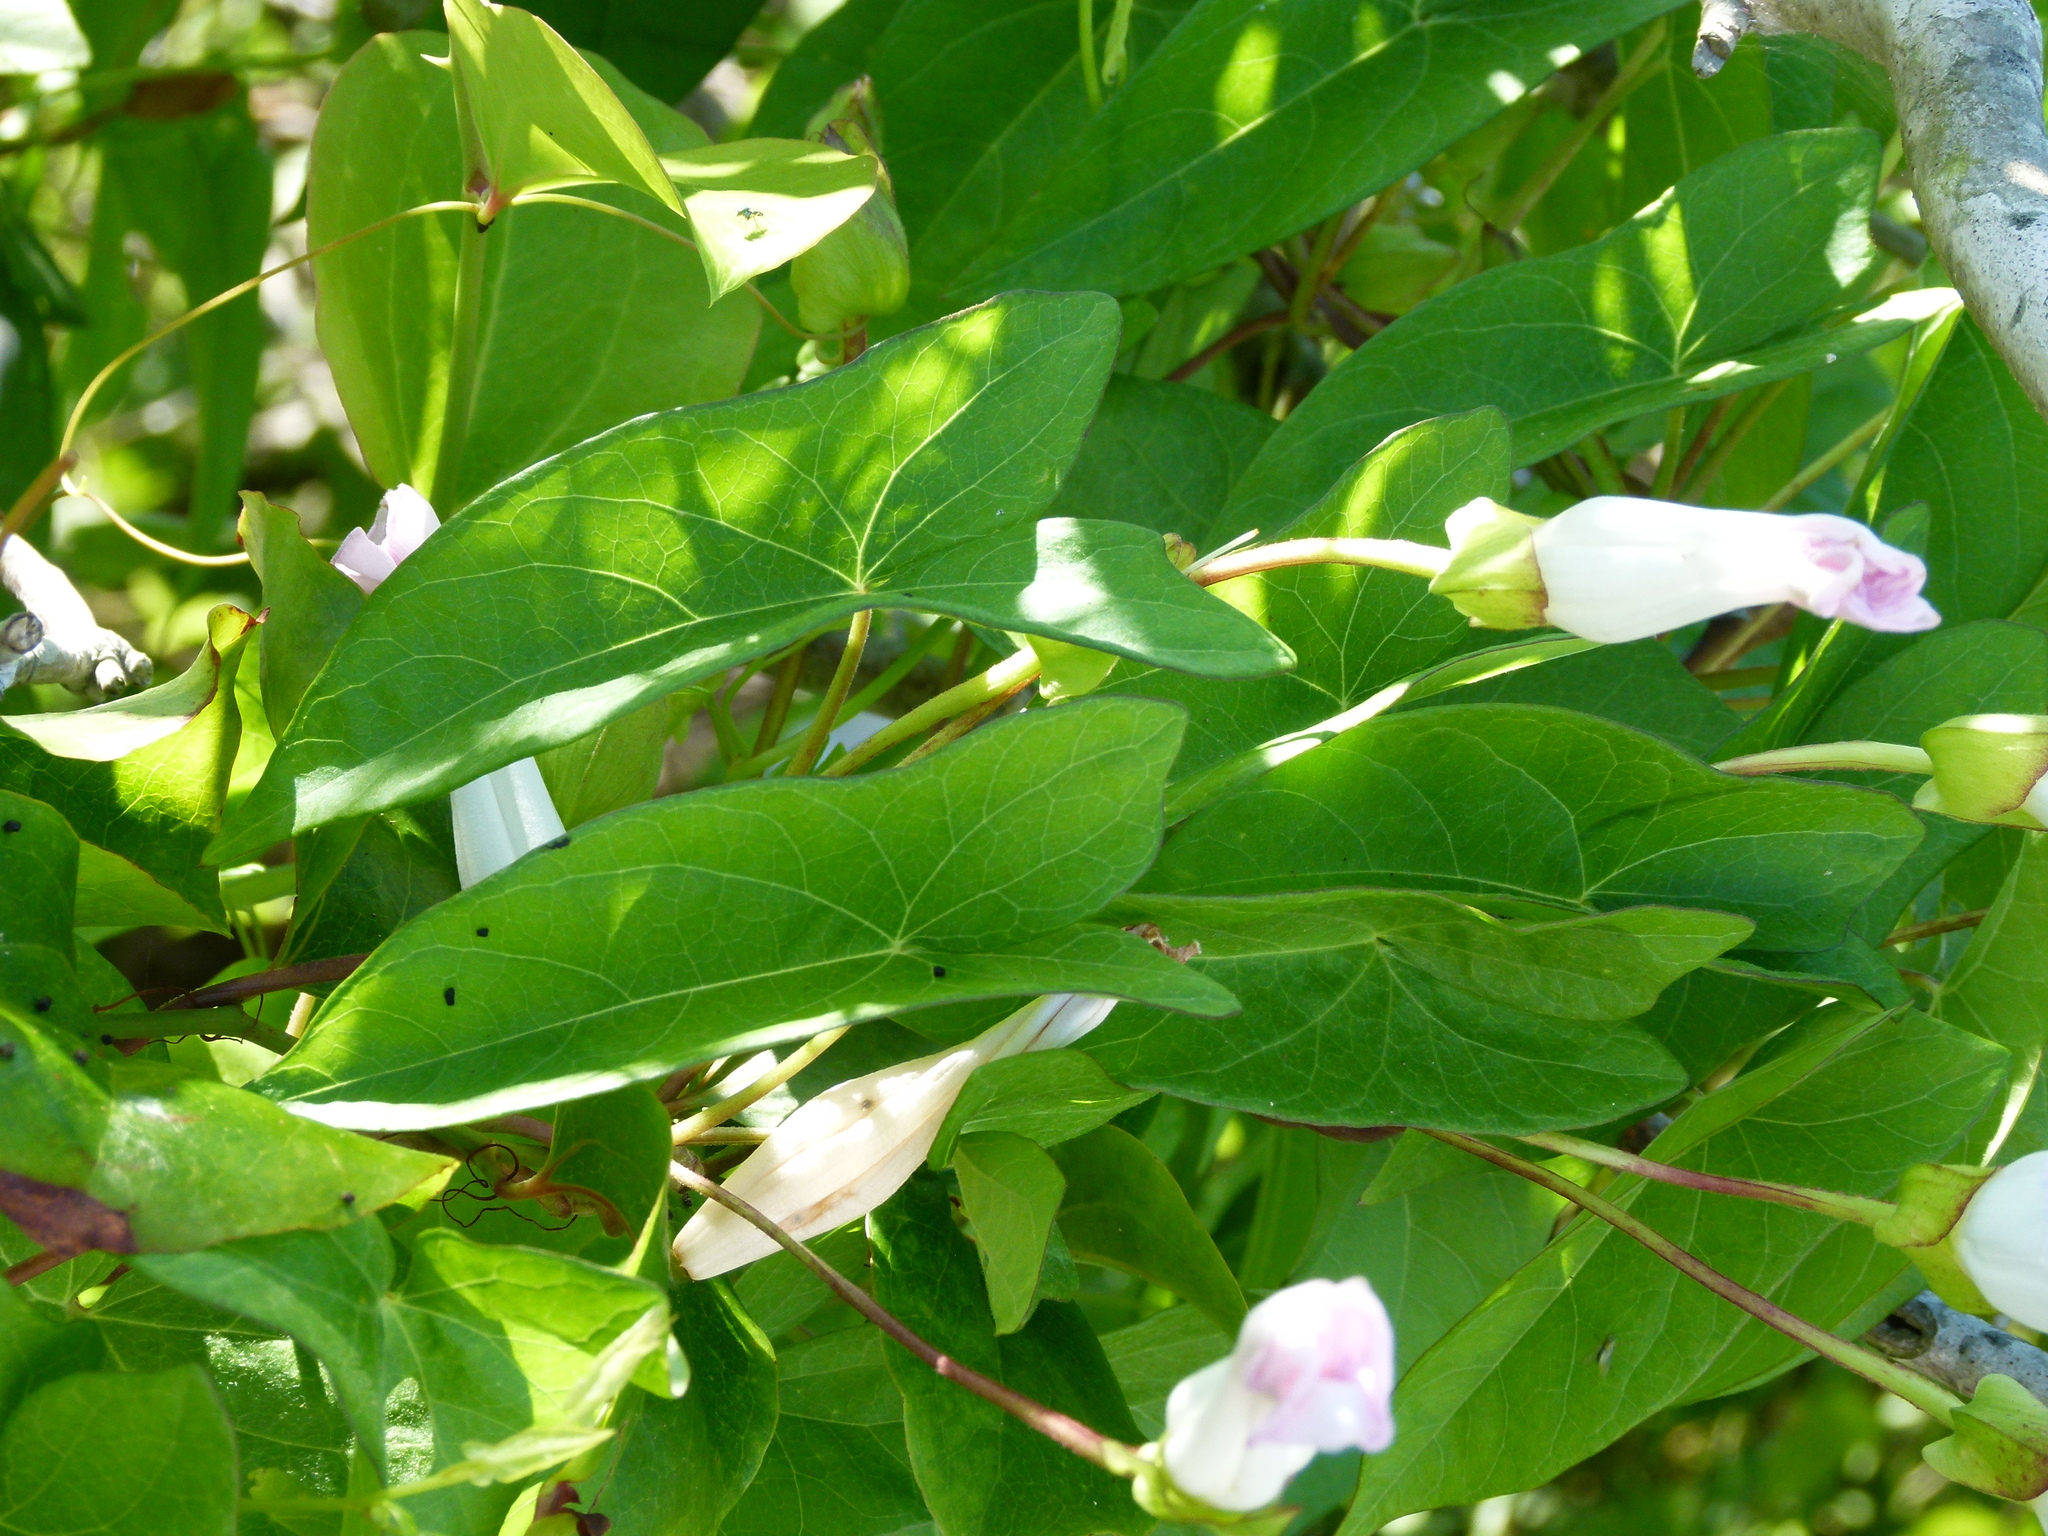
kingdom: Plantae
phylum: Tracheophyta
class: Magnoliopsida
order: Solanales
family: Convolvulaceae
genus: Calystegia
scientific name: Calystegia sepium
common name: Hedge bindweed
